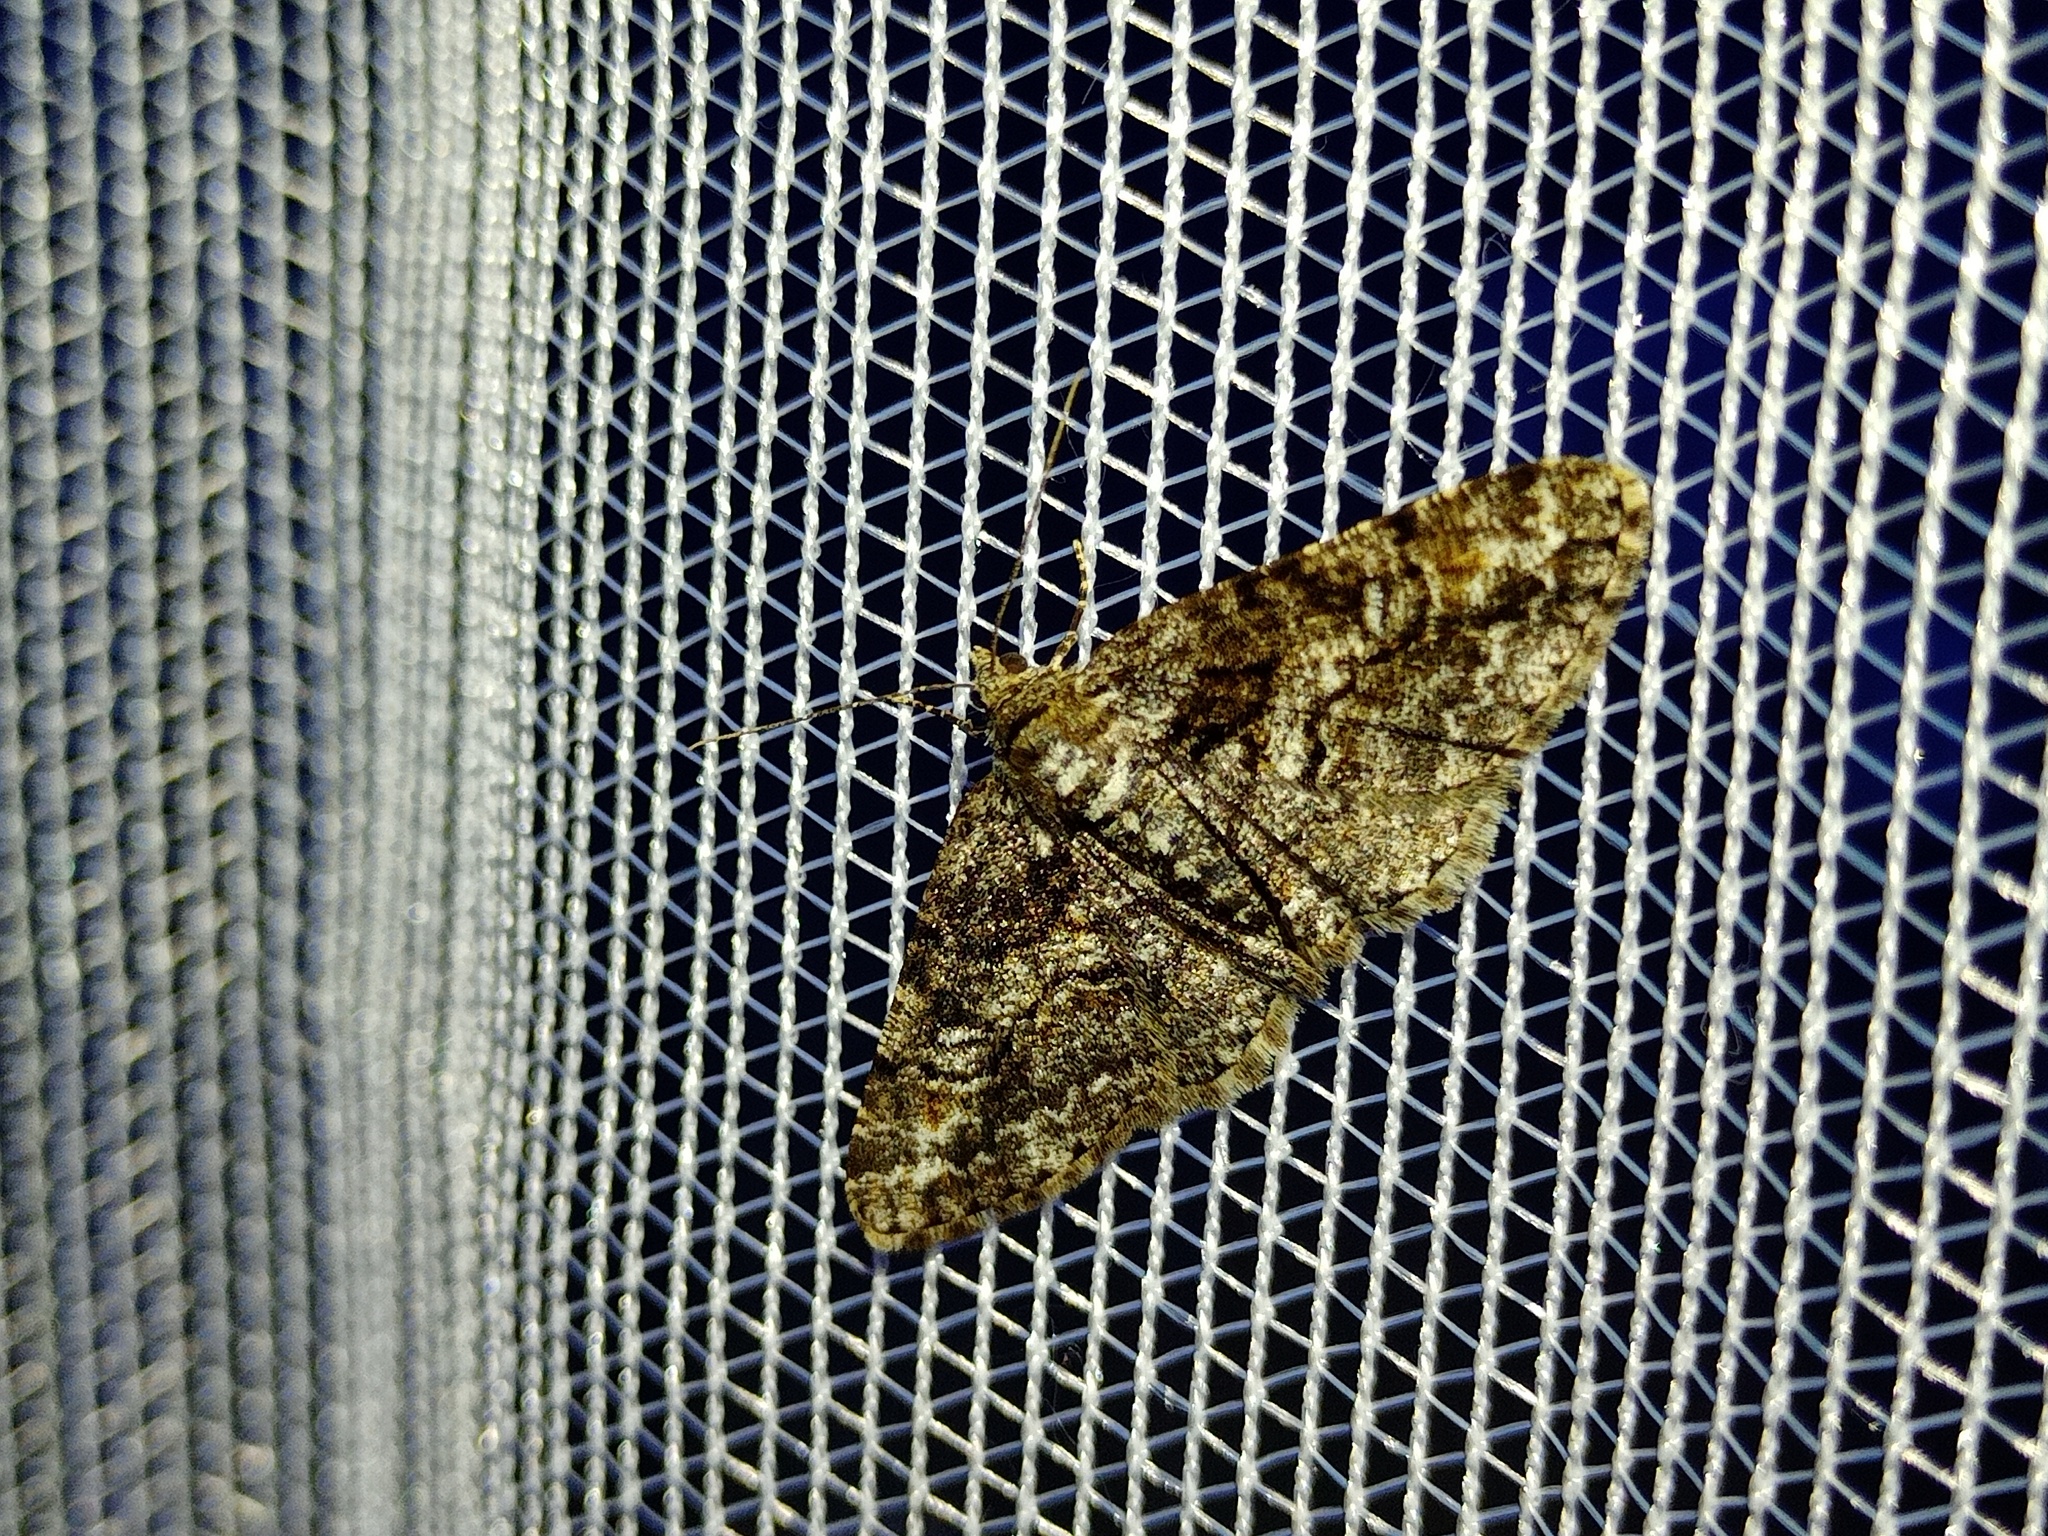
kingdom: Animalia
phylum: Arthropoda
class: Insecta
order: Lepidoptera
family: Geometridae
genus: Cleora
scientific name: Cleora cinctaria
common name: Ringed carpet
